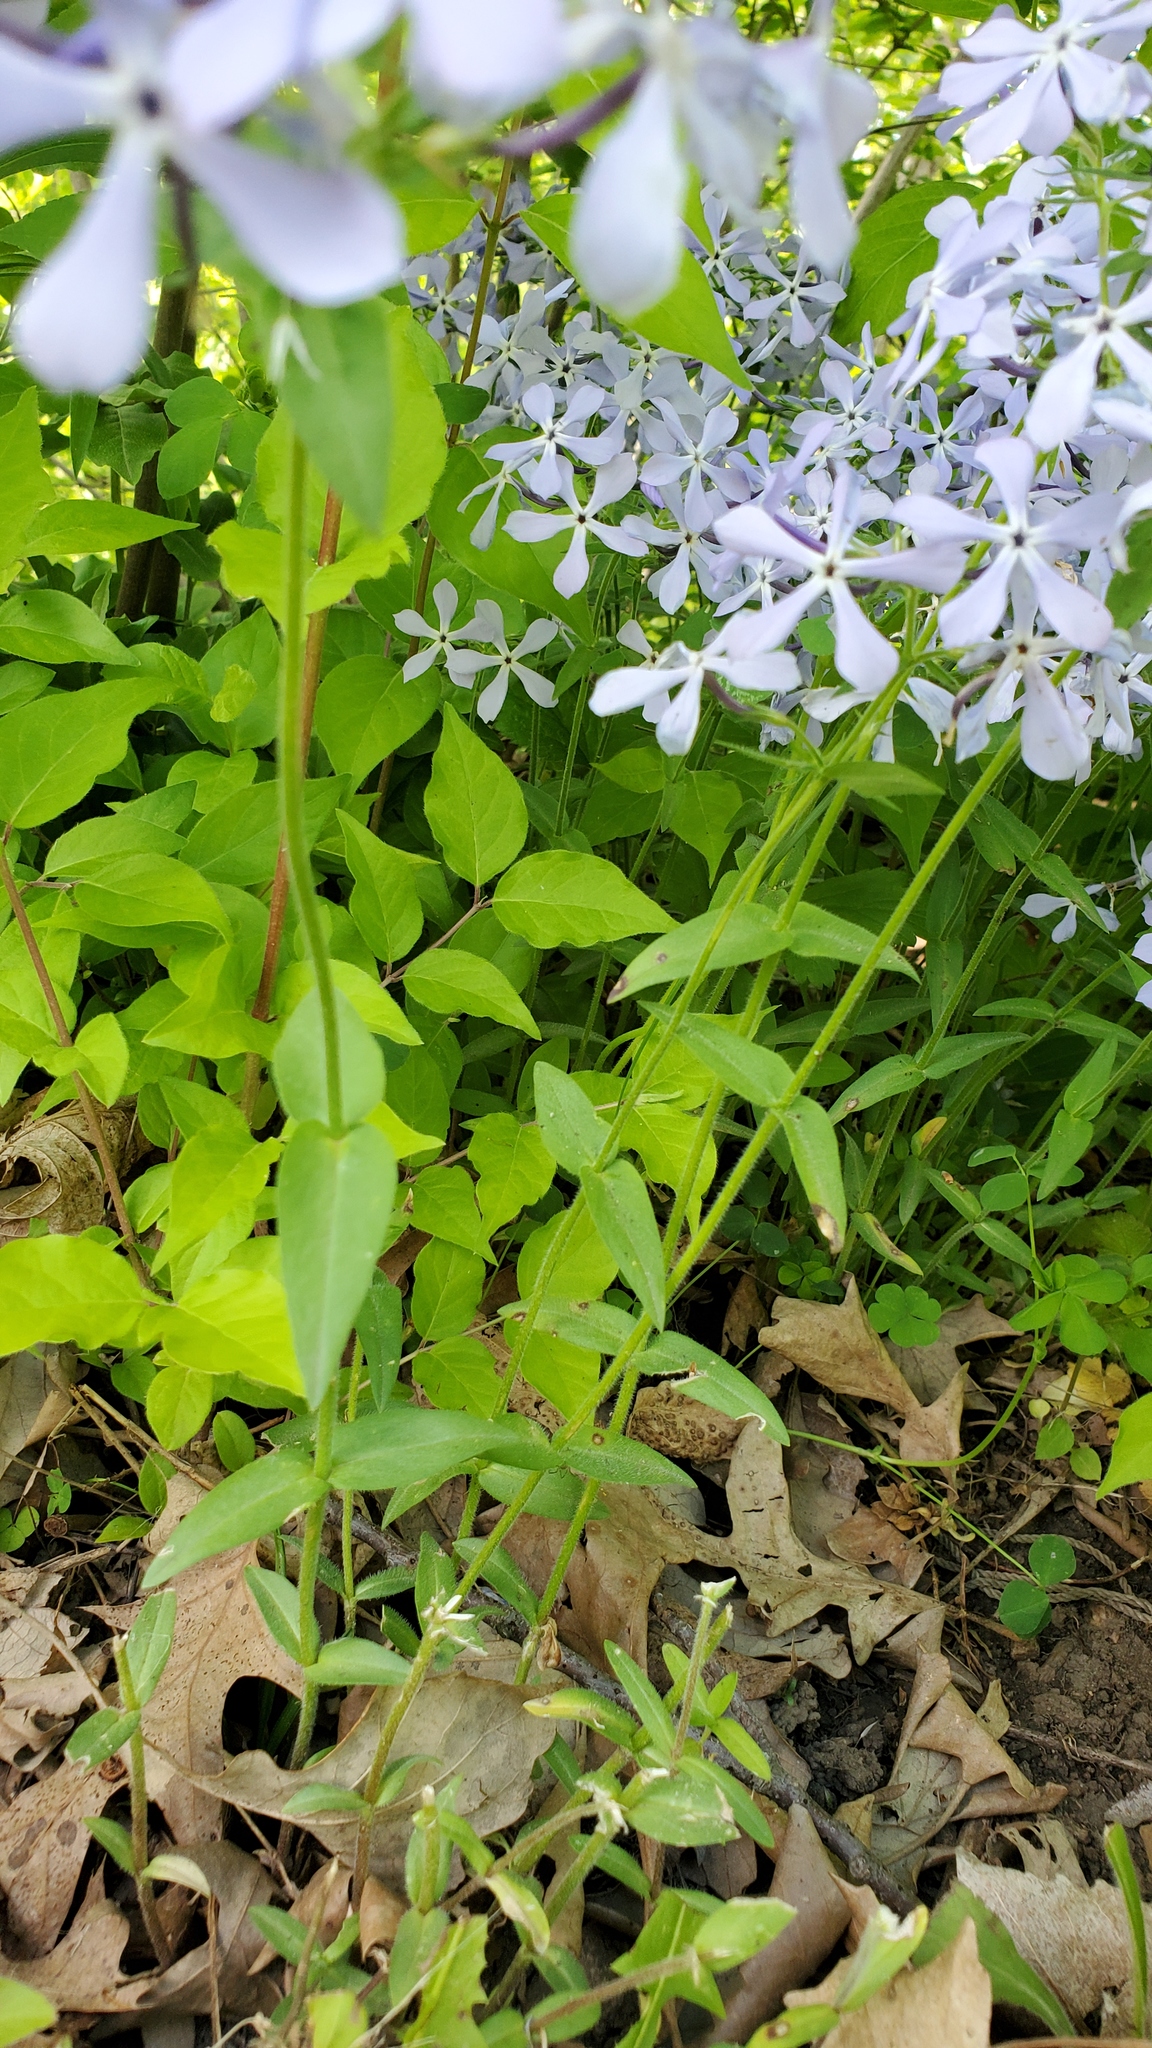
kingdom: Plantae
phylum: Tracheophyta
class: Magnoliopsida
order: Ericales
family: Polemoniaceae
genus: Phlox
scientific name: Phlox divaricata
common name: Blue phlox
